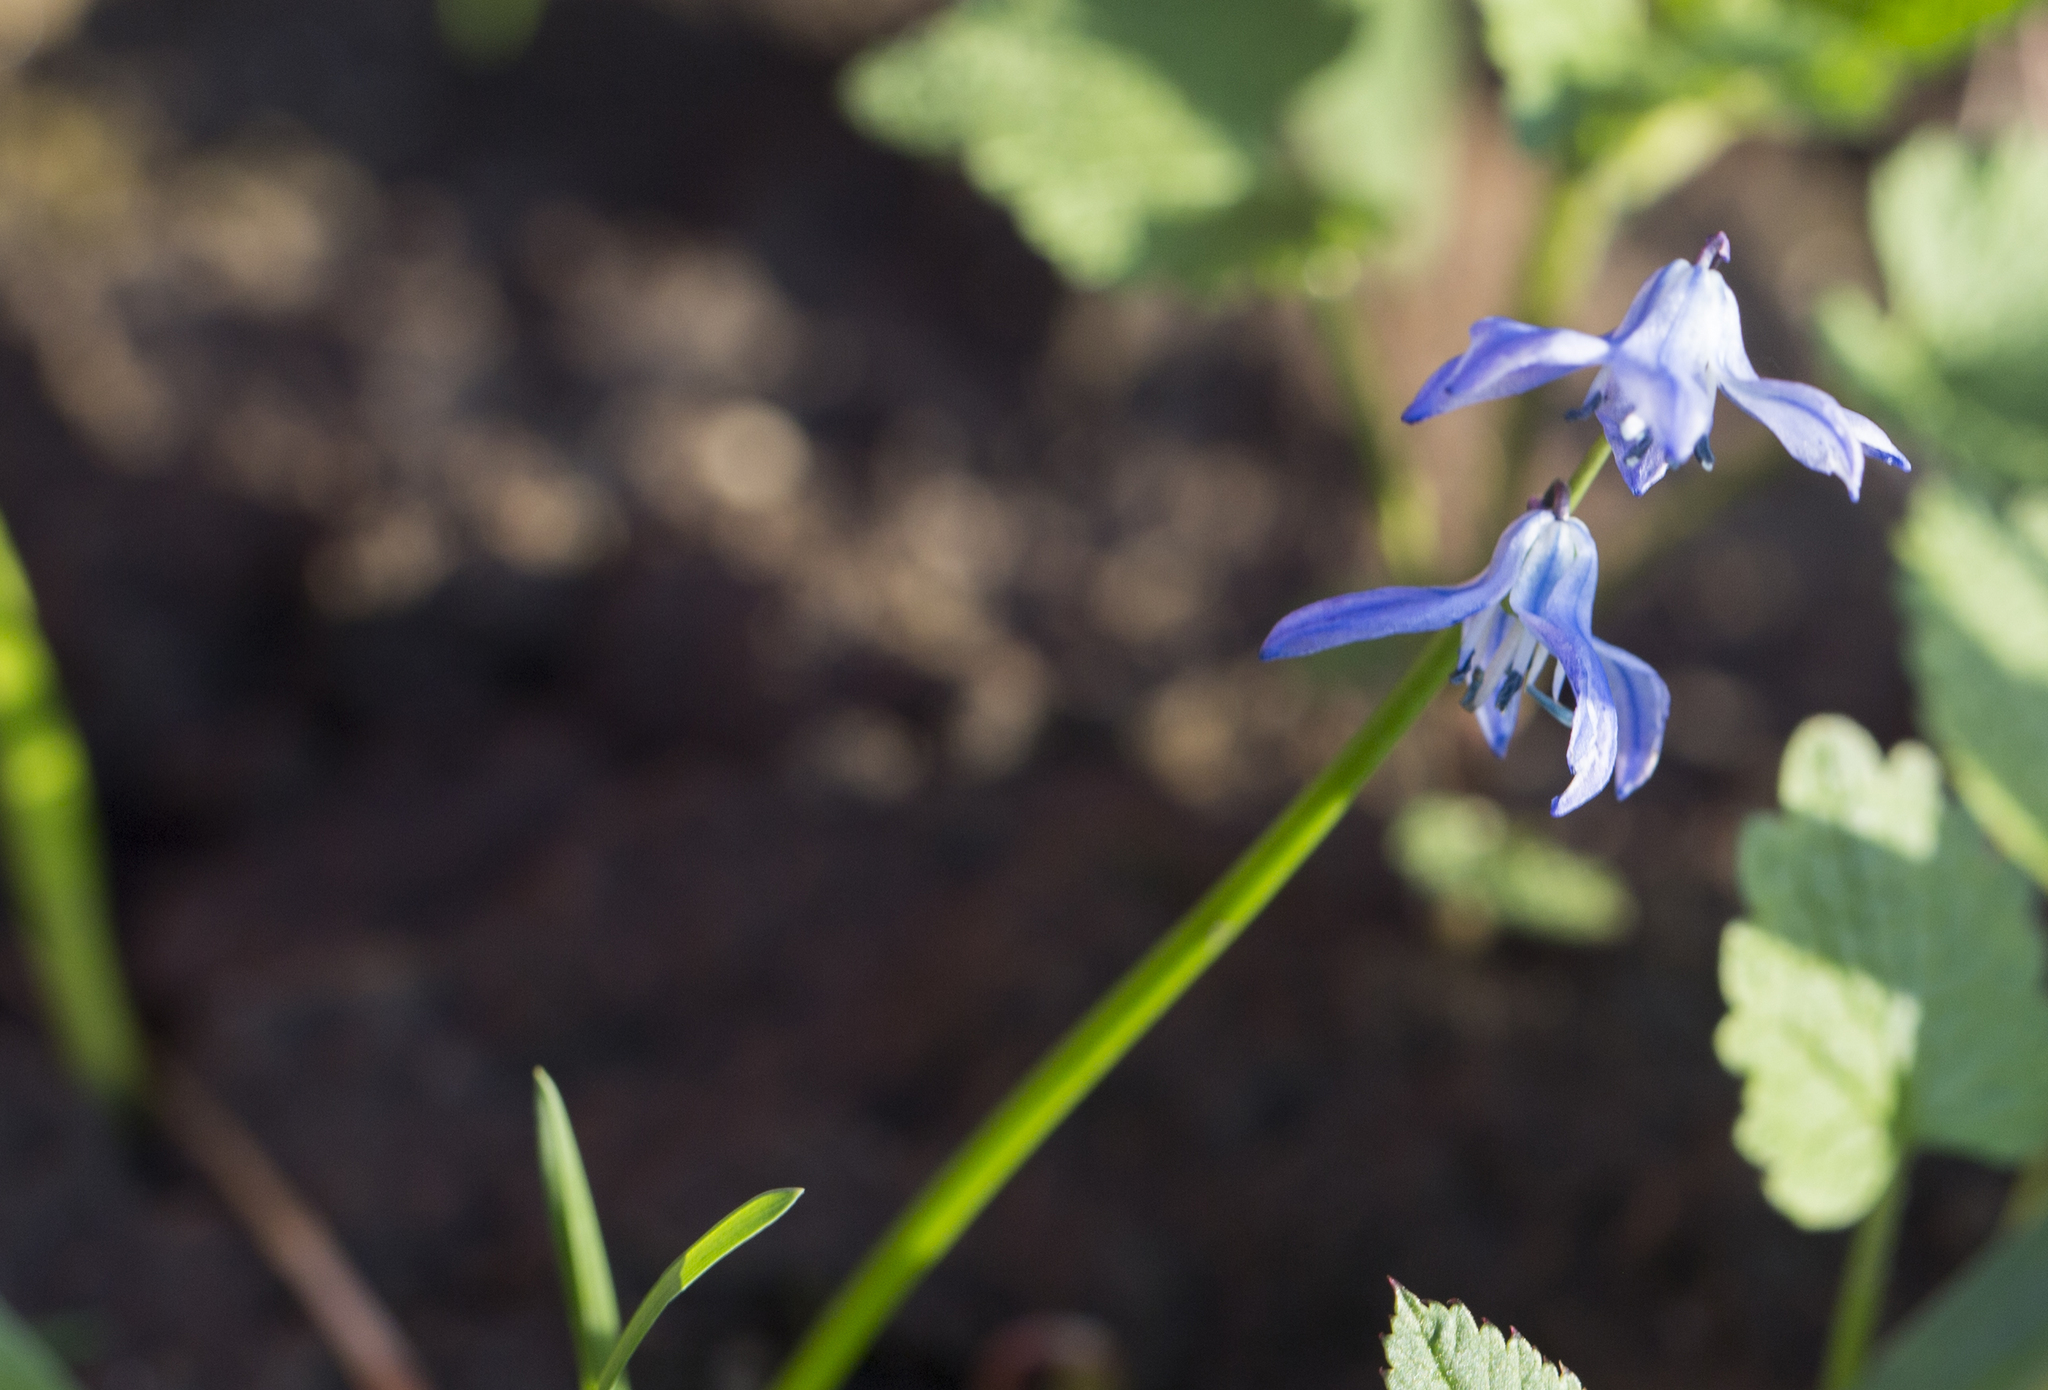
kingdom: Plantae
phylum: Tracheophyta
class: Liliopsida
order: Asparagales
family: Asparagaceae
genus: Scilla
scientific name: Scilla siberica
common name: Siberian squill
